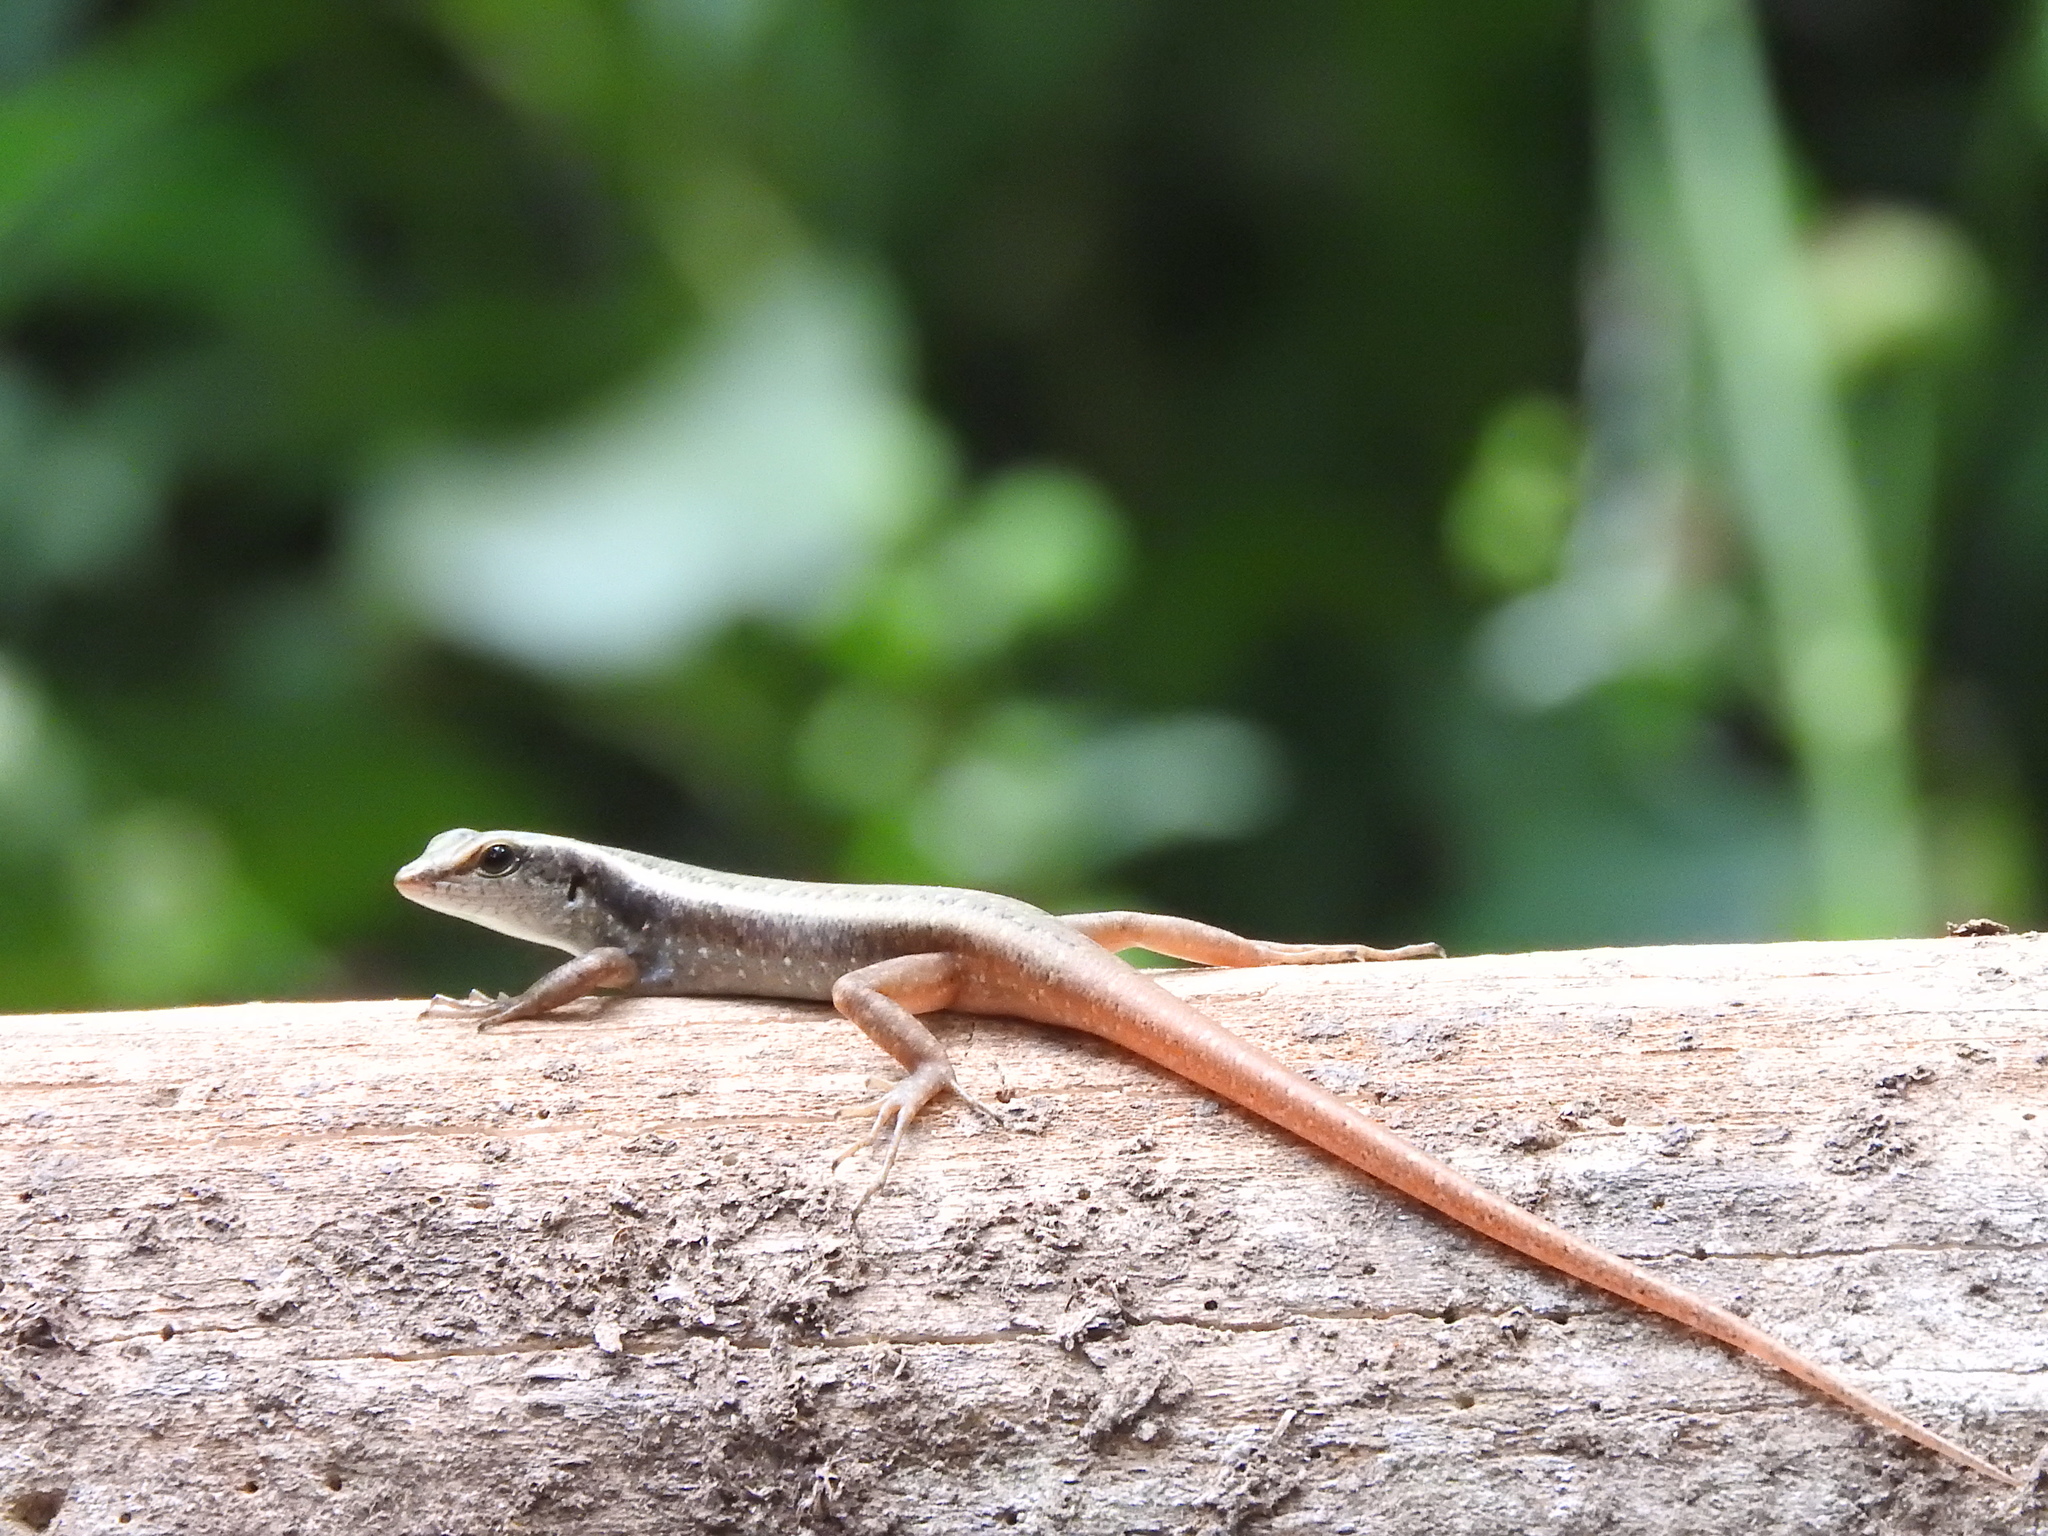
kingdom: Animalia
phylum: Chordata
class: Squamata
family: Scincidae
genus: Sphenomorphus
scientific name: Sphenomorphus dussumieri
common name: Dussumier's forest skink
